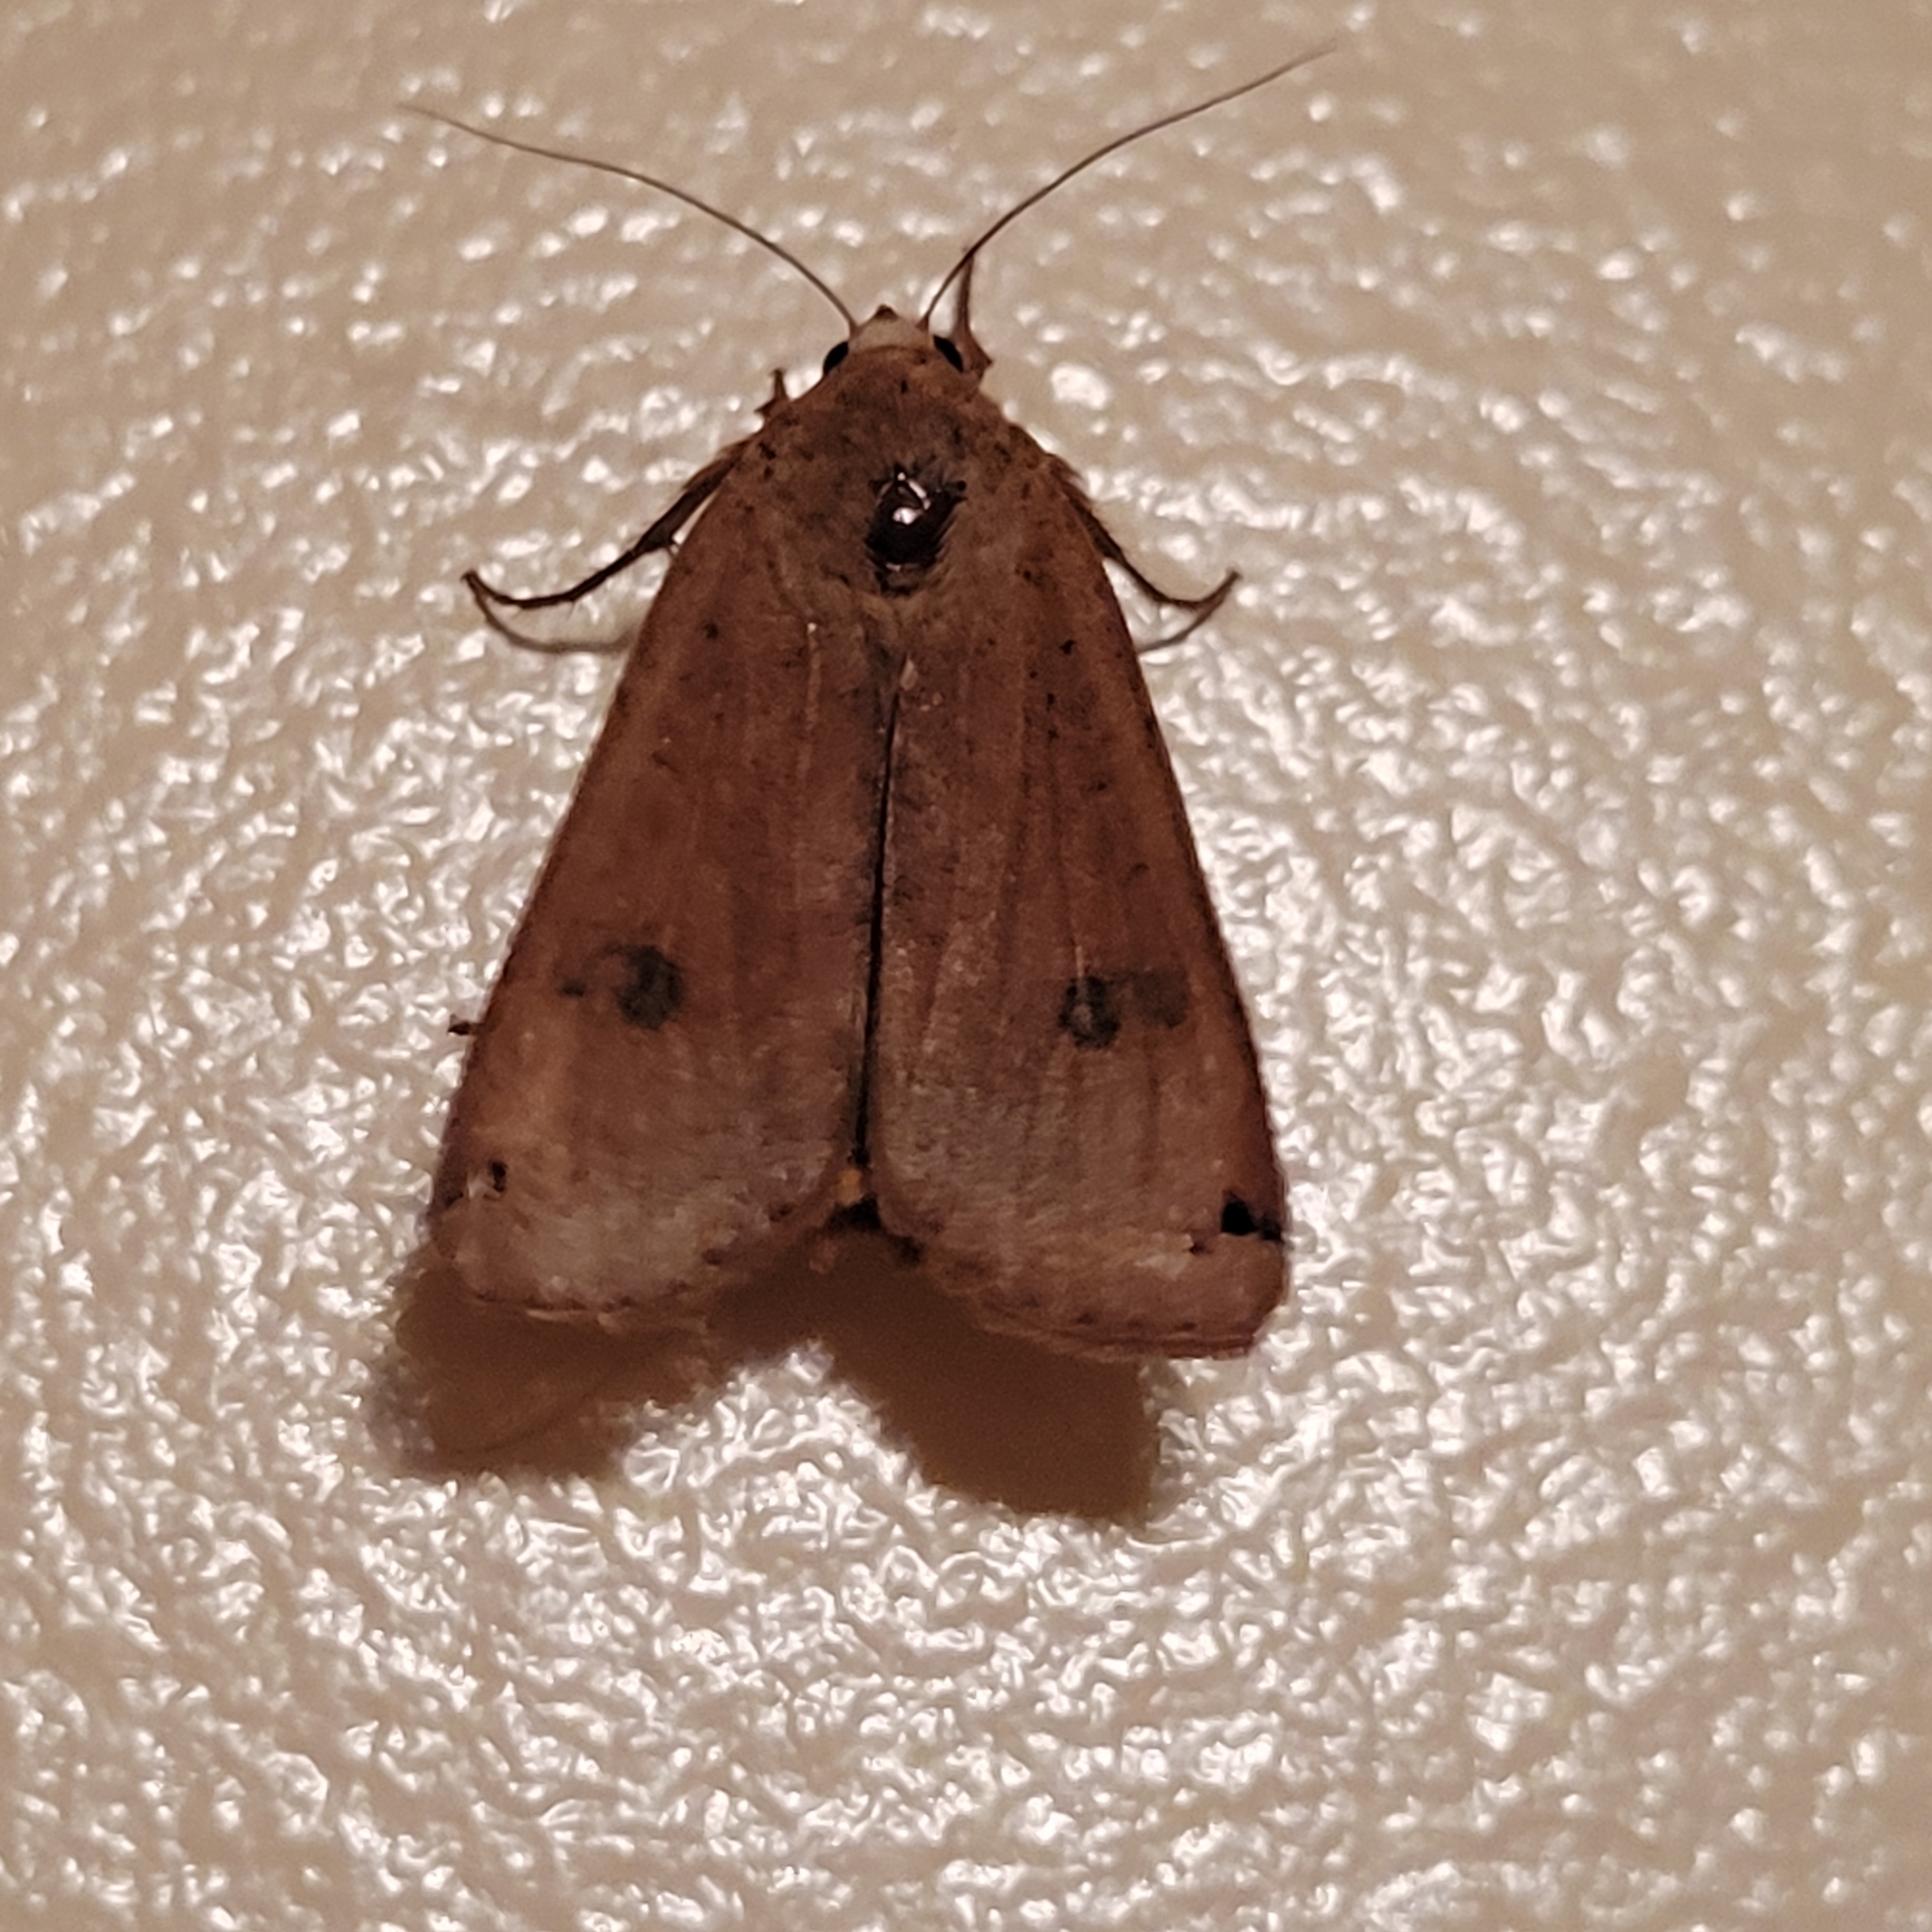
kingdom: Animalia
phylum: Arthropoda
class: Insecta
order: Lepidoptera
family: Noctuidae
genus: Noctua
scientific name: Noctua pronuba
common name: Large yellow underwing
